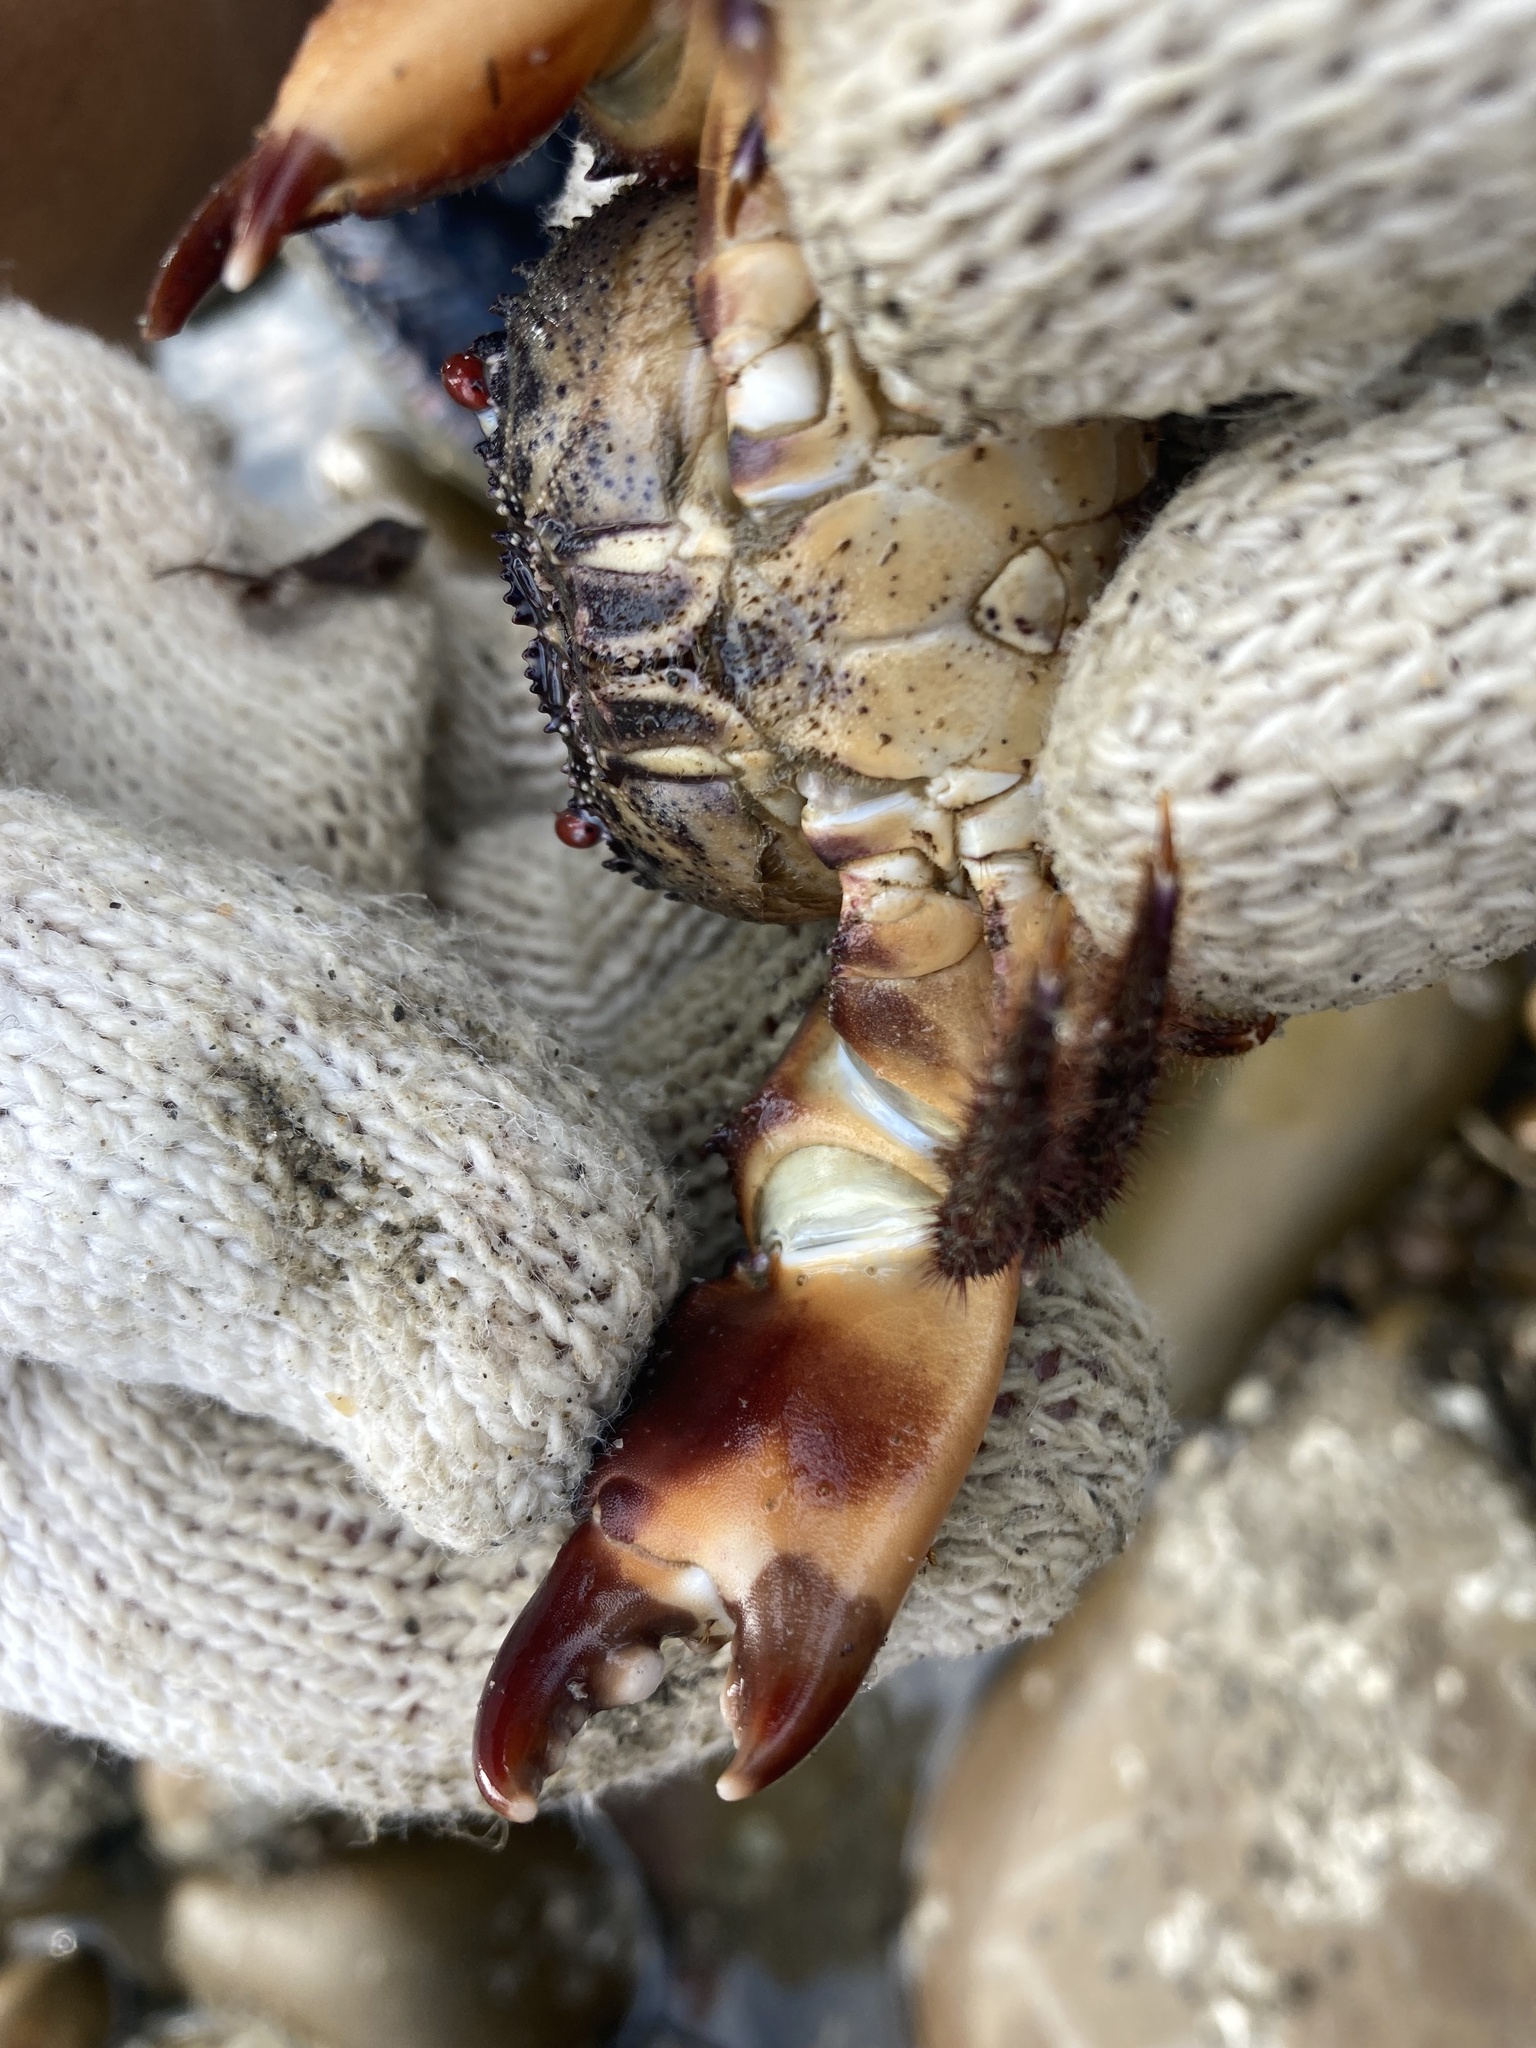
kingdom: Animalia
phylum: Arthropoda
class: Malacostraca
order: Decapoda
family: Eriphiidae
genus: Eriphia
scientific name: Eriphia ferox
